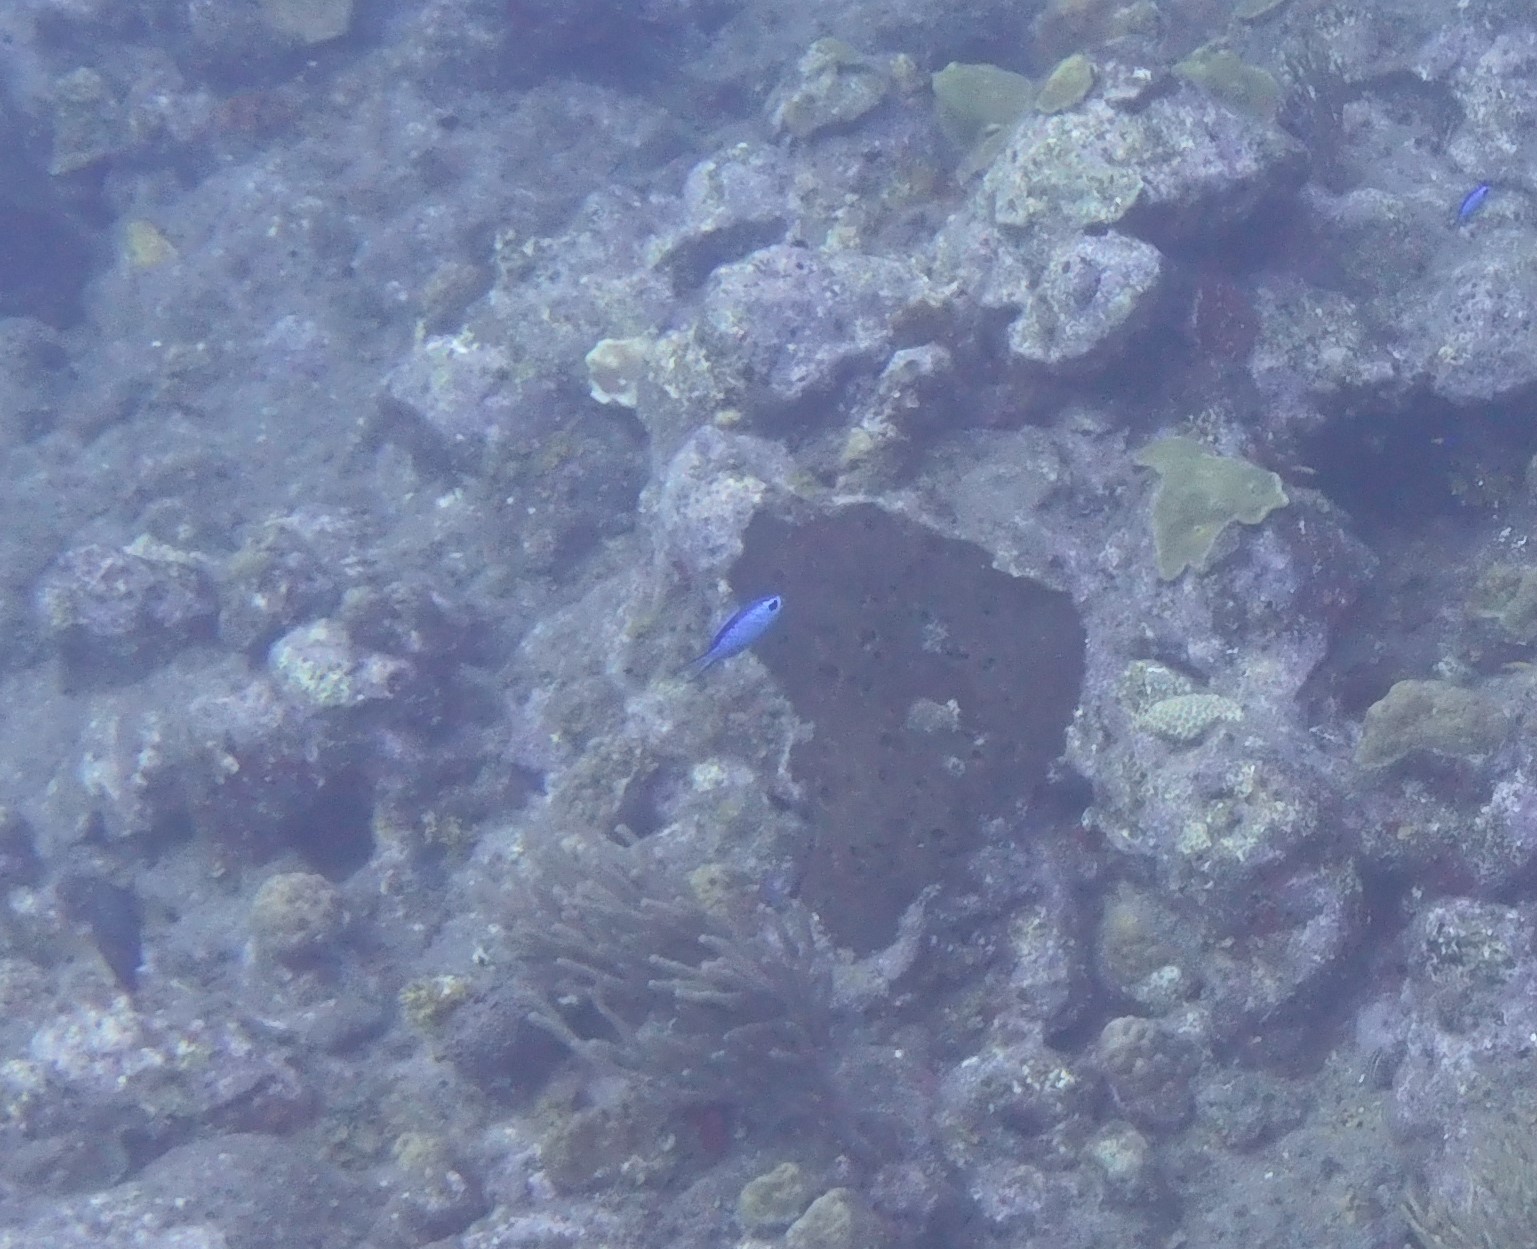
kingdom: Animalia
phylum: Chordata
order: Perciformes
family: Pomacentridae
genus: Chromis
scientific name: Chromis cyanea
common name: Blue chromis
